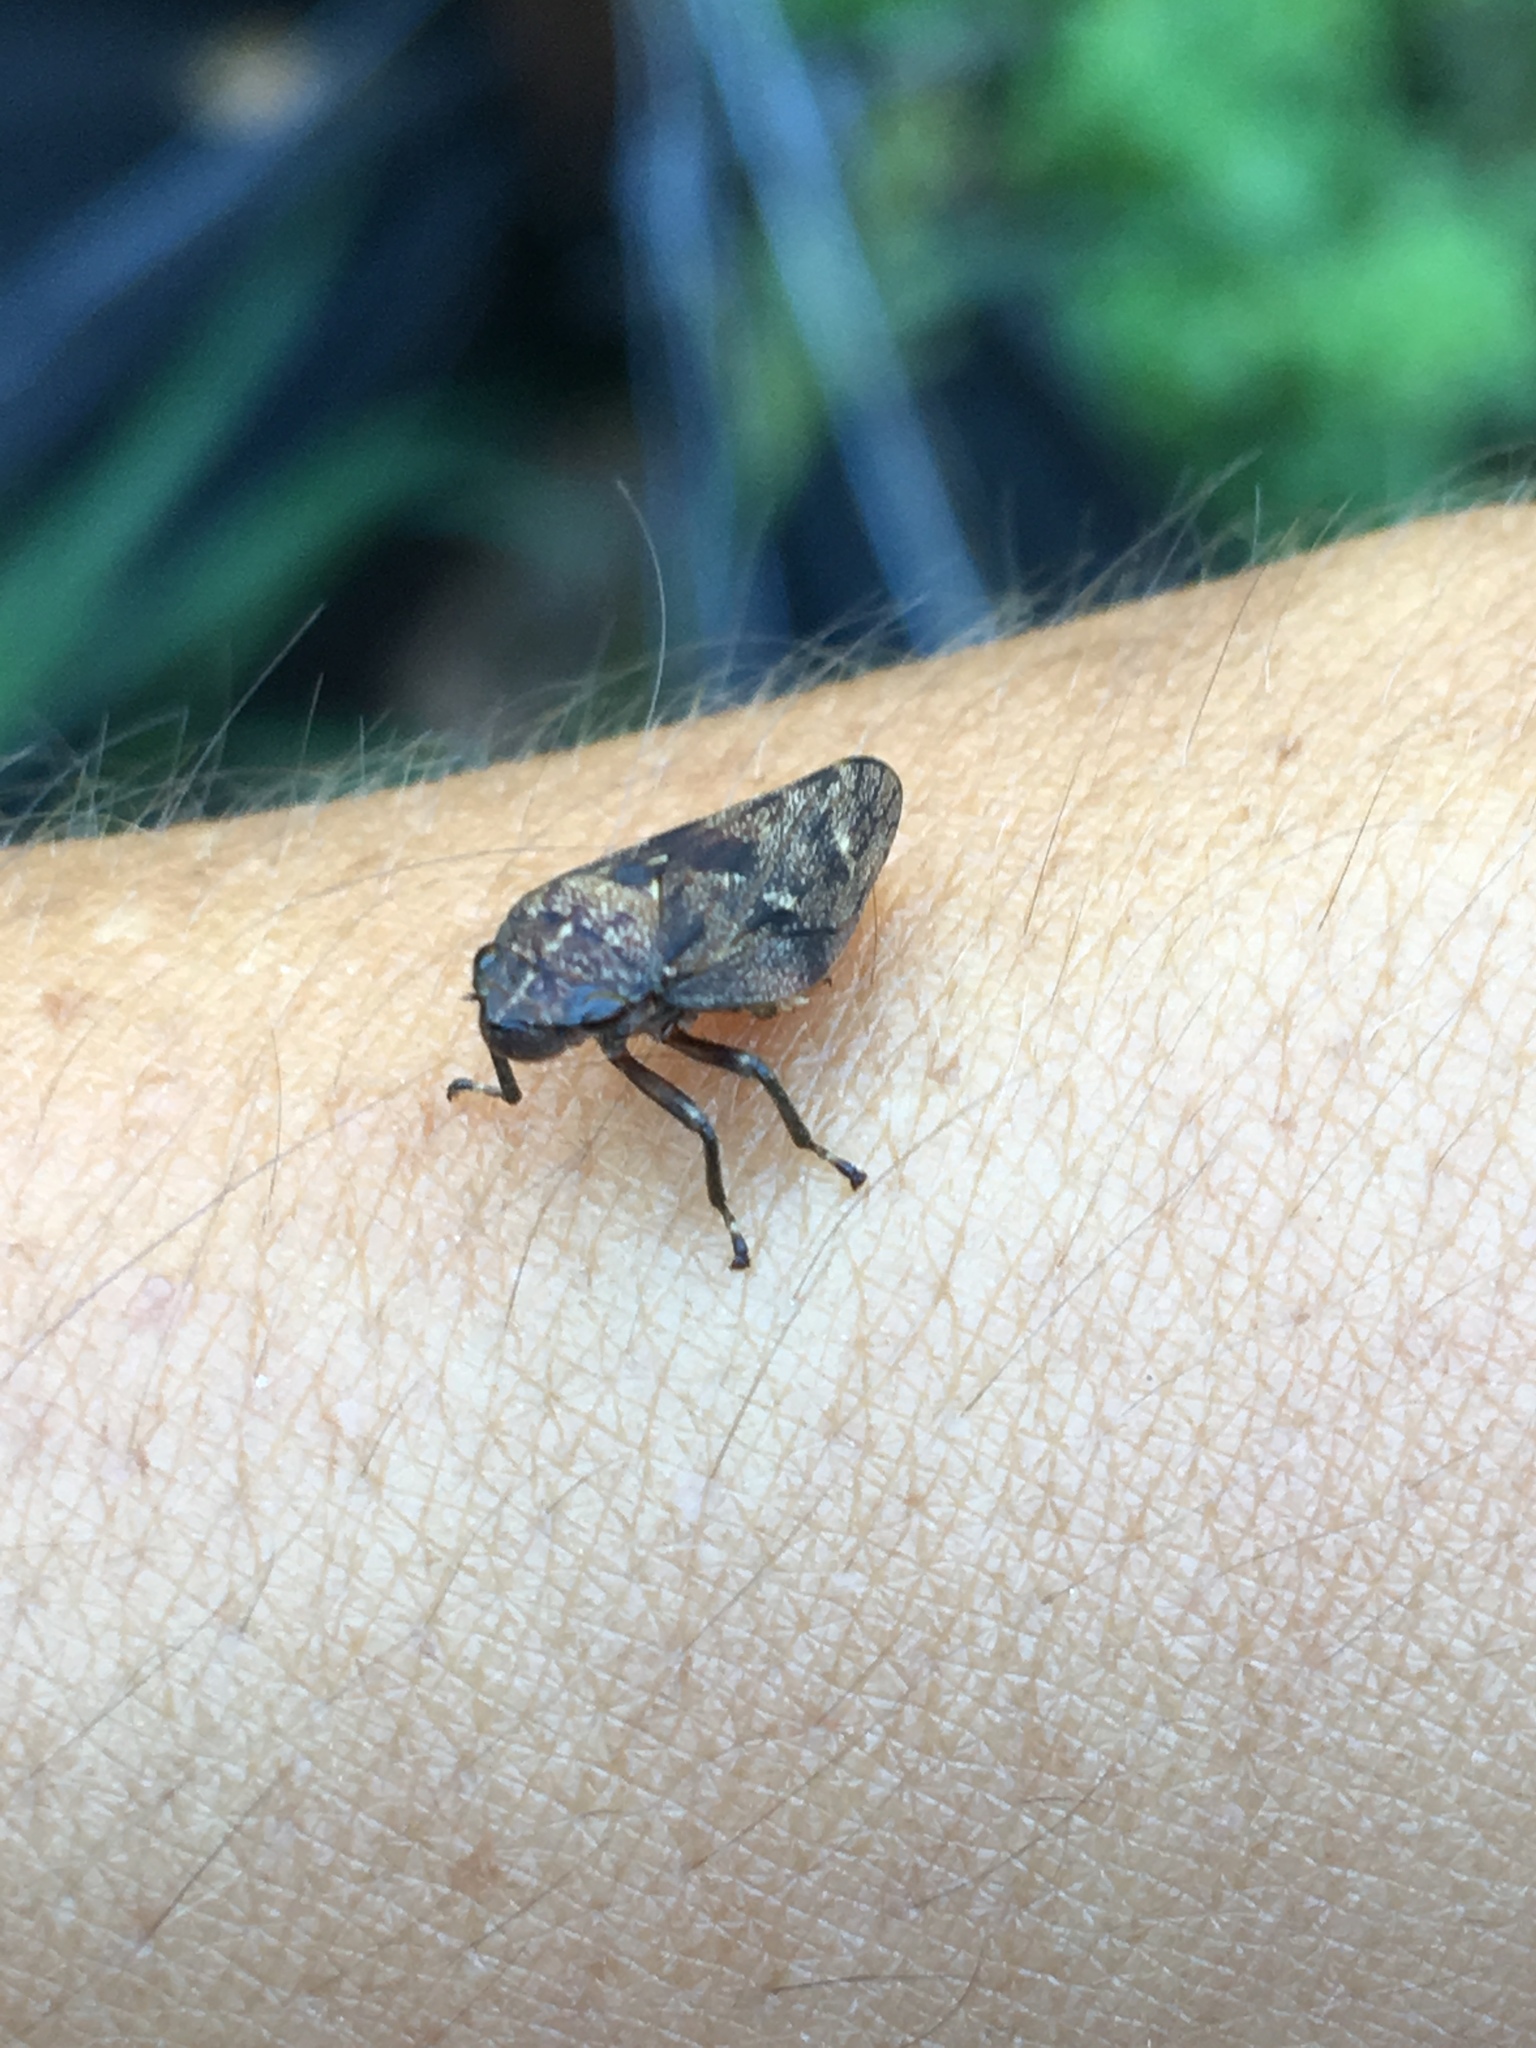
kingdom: Animalia
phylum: Arthropoda
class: Insecta
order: Hemiptera
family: Epipygidae
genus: Epipyga
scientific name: Epipyga cribrata
